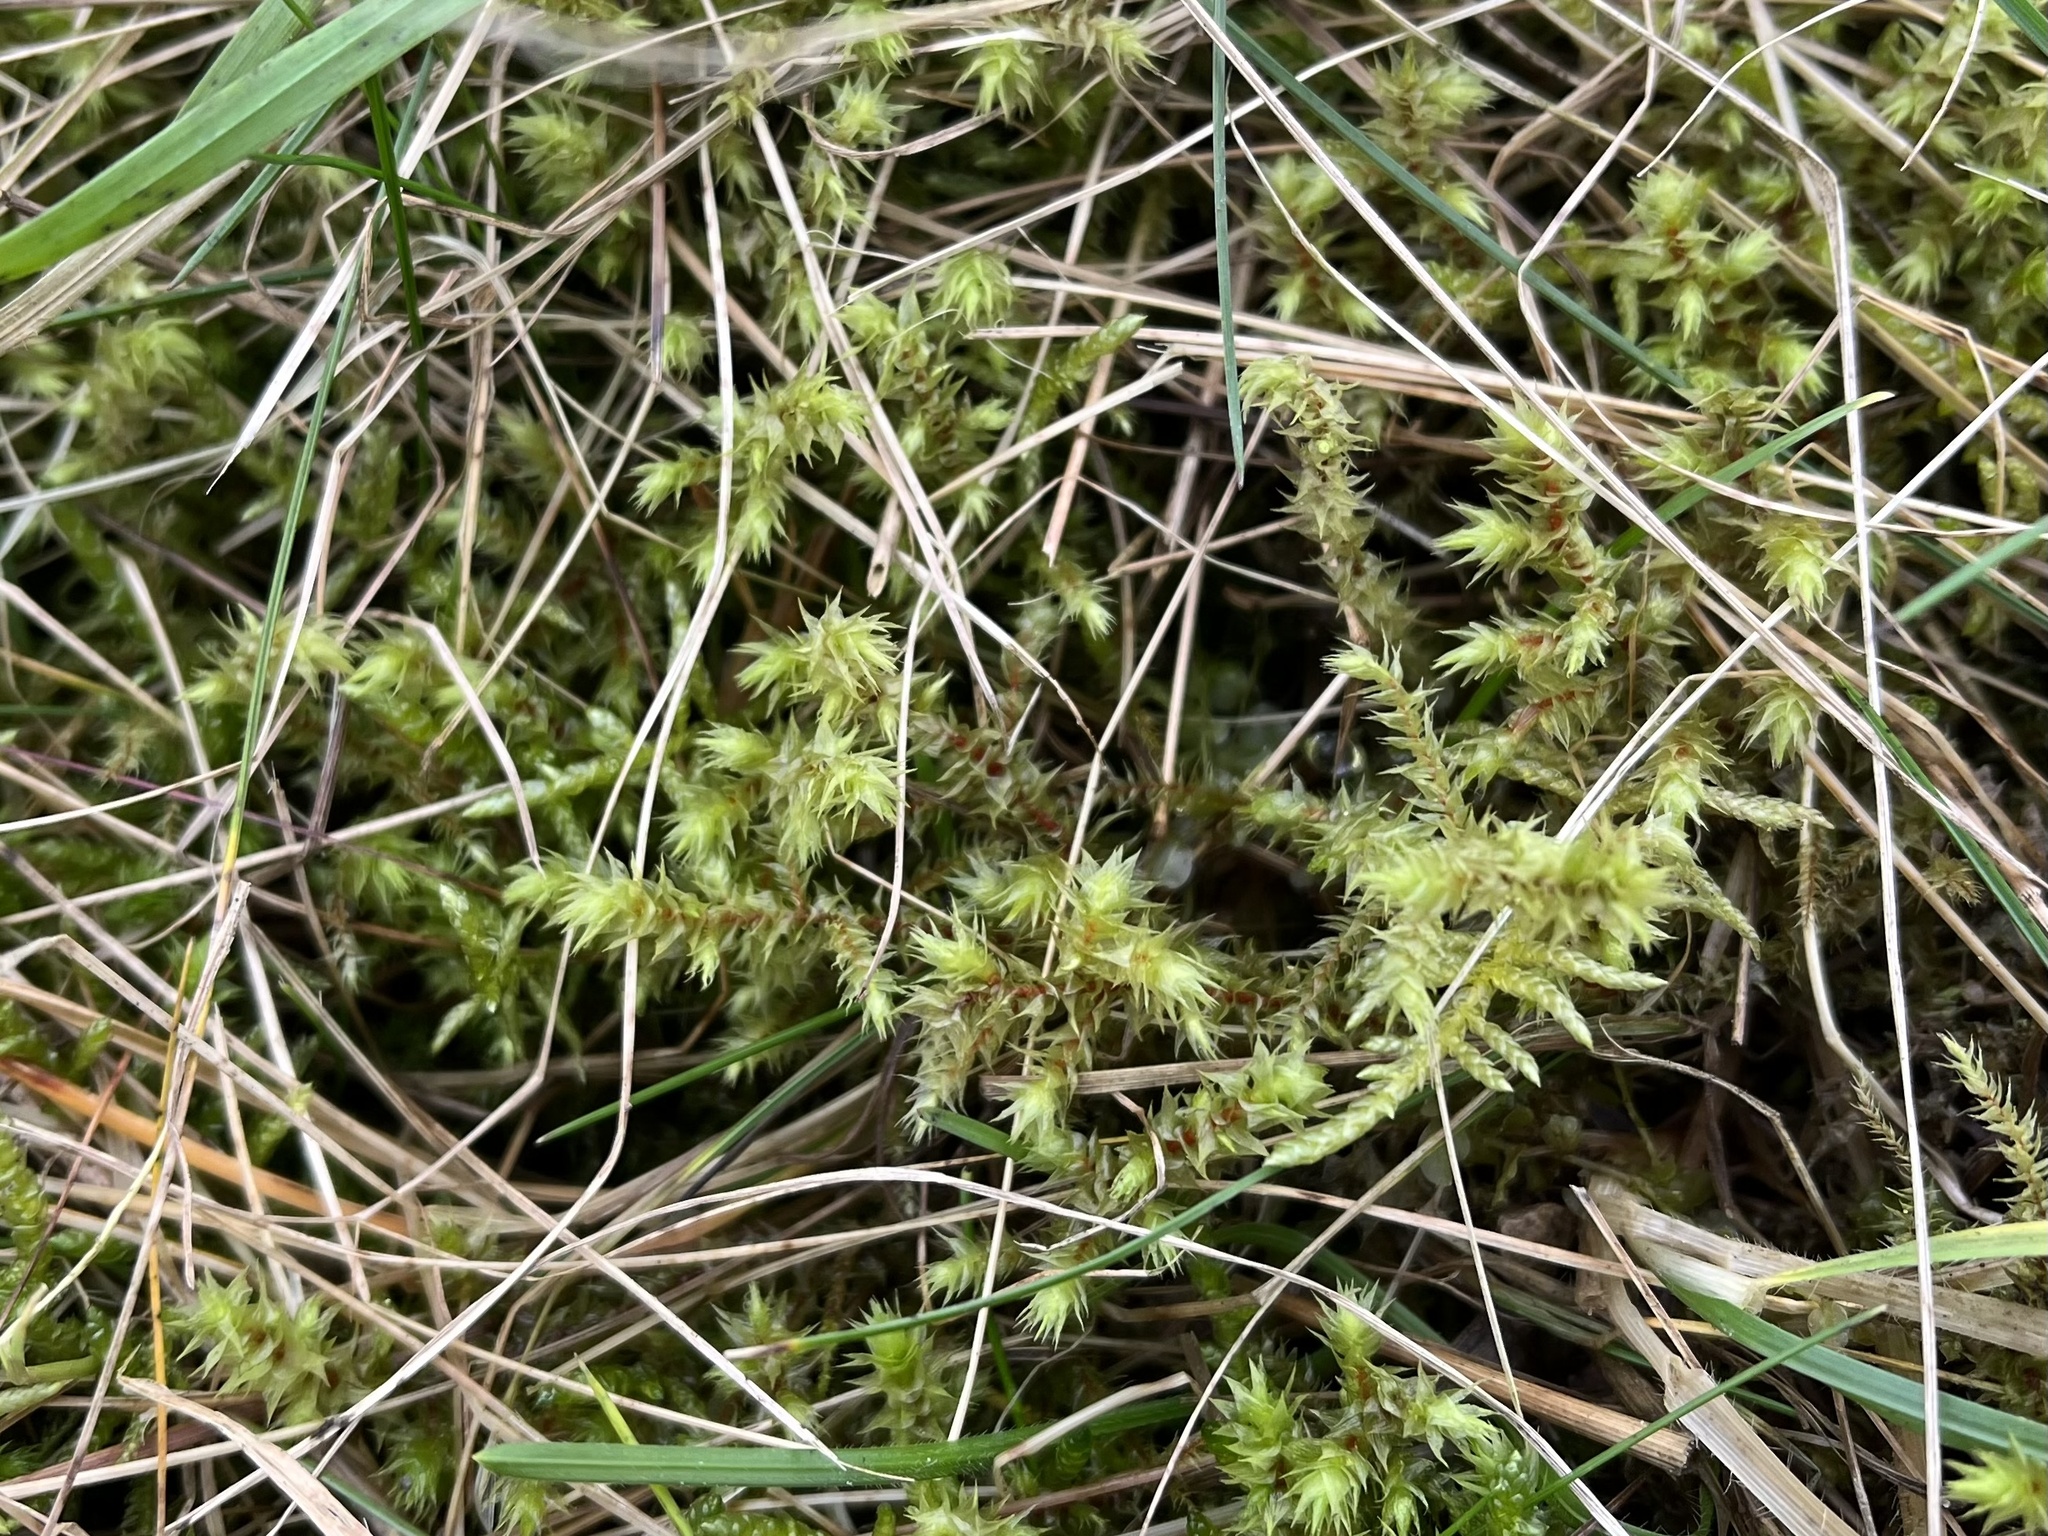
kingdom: Plantae
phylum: Bryophyta
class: Bryopsida
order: Hypnales
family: Hylocomiaceae
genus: Hylocomiadelphus
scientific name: Hylocomiadelphus triquetrus
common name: Rough goose neck moss
